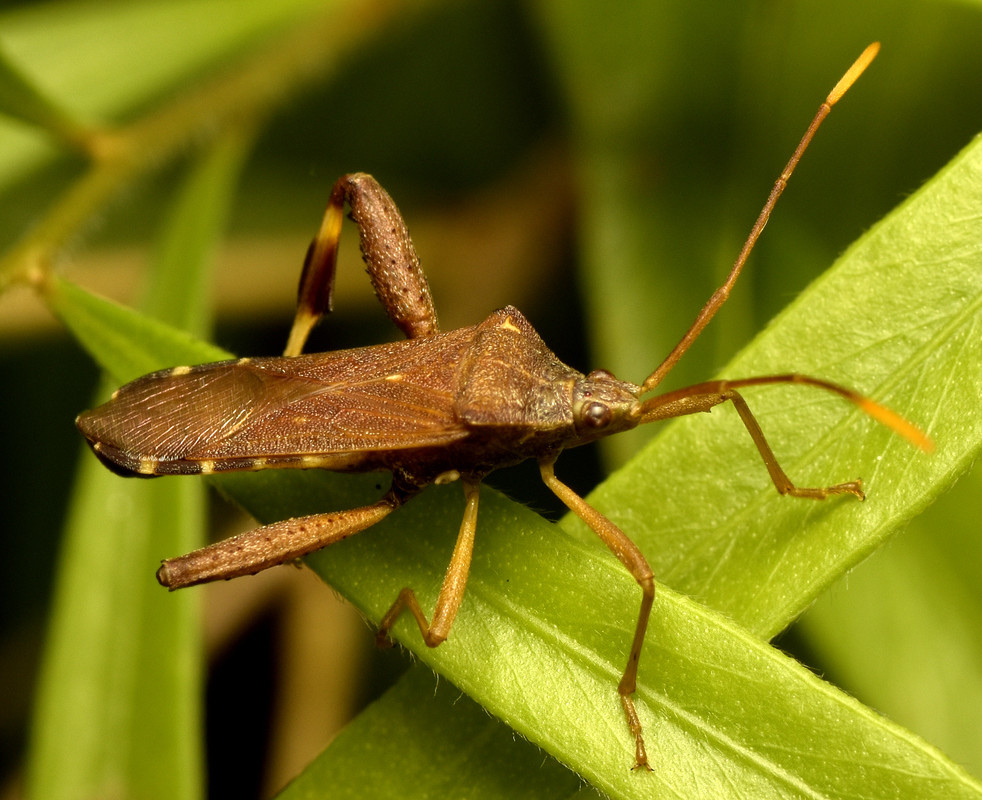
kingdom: Animalia
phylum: Arthropoda
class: Insecta
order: Hemiptera
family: Coreidae
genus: Tambourina
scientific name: Tambourina kelsalli
